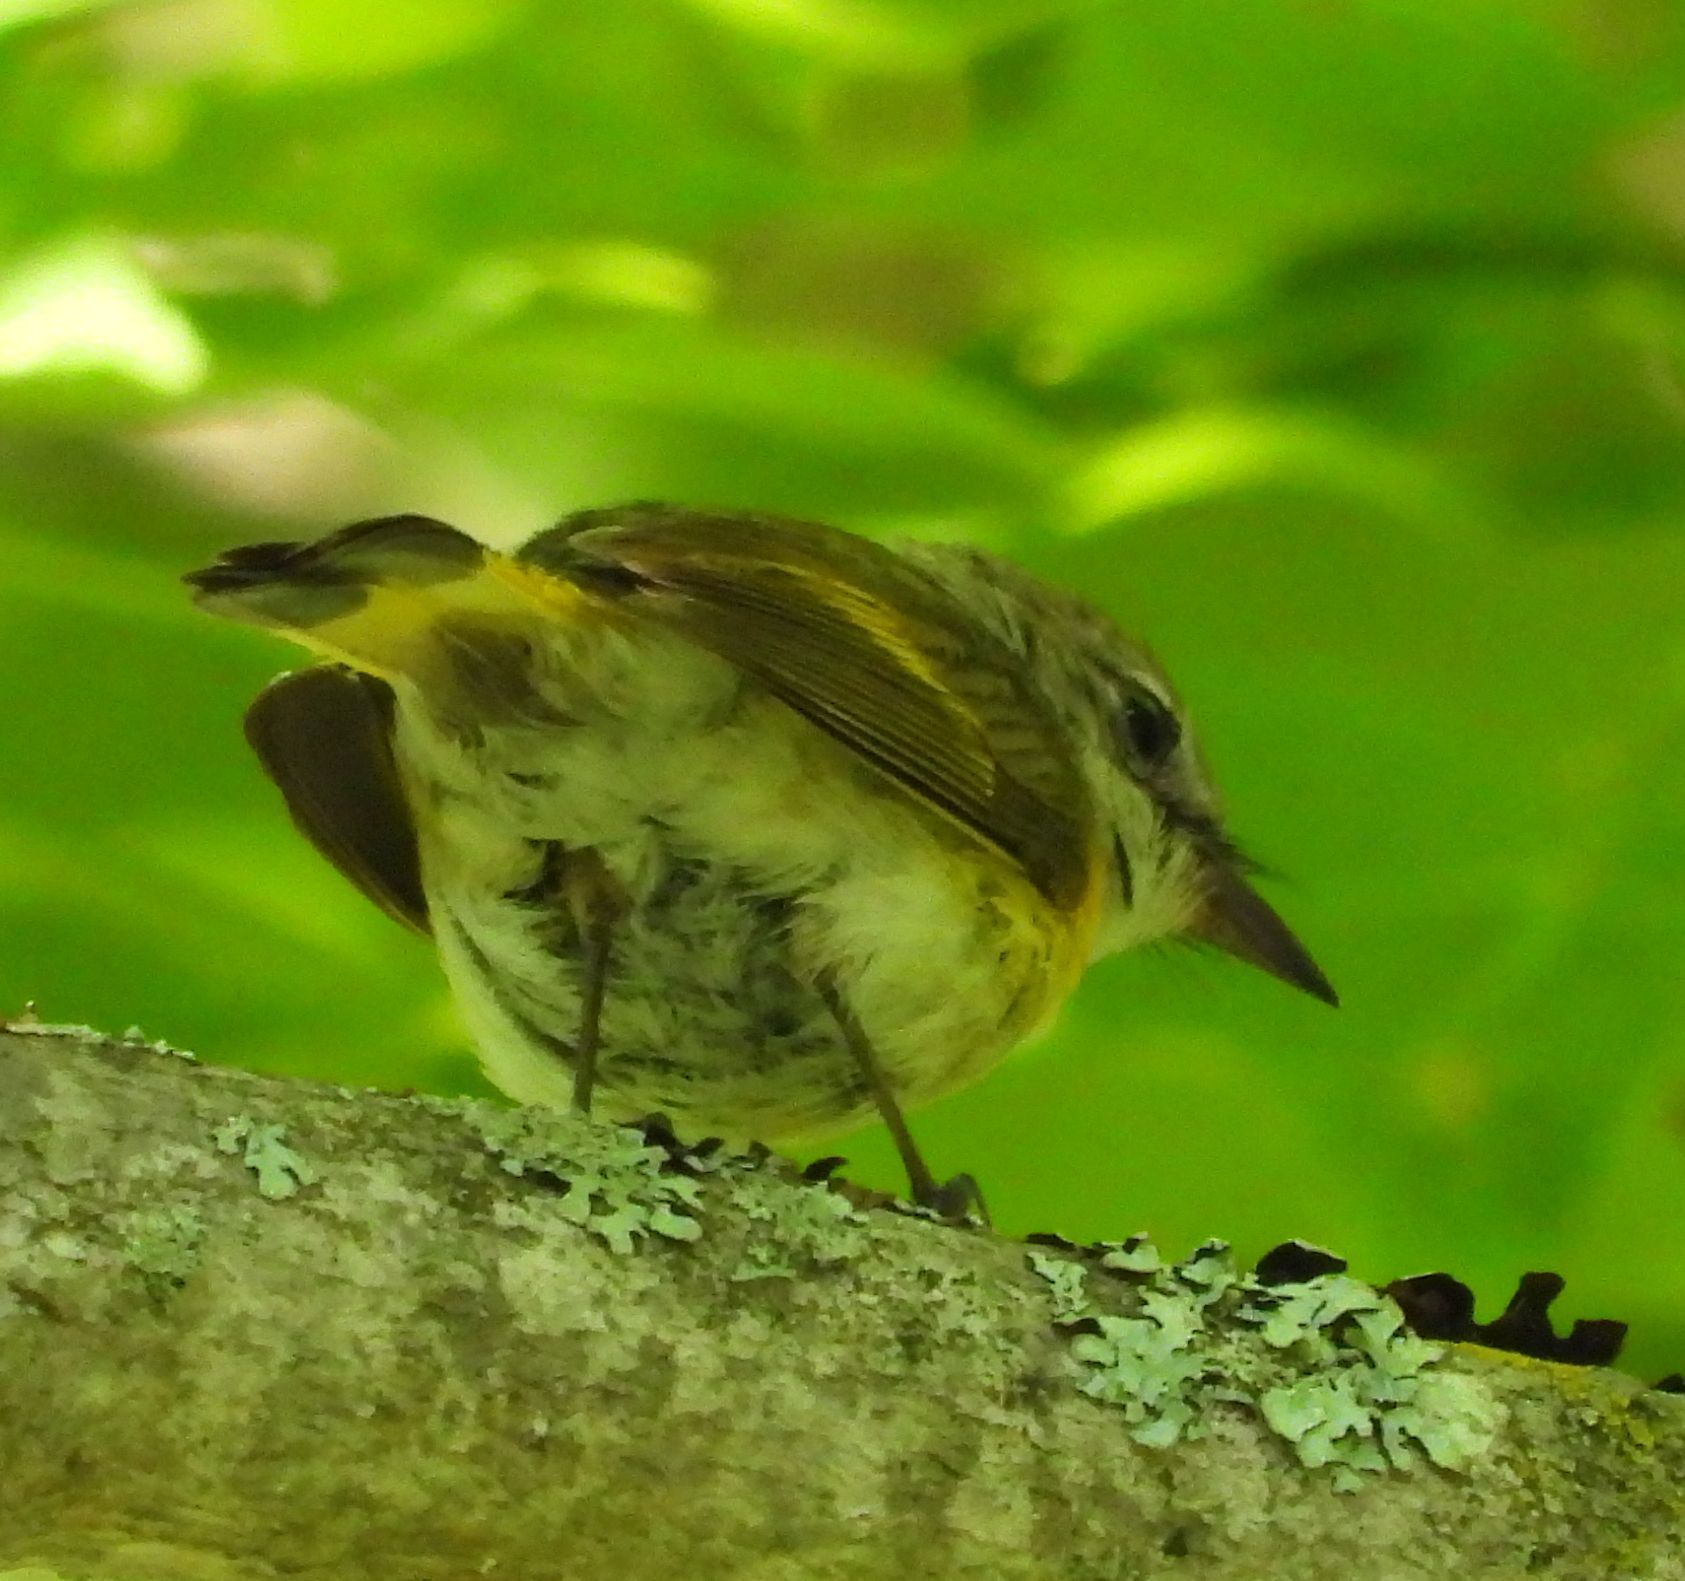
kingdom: Animalia
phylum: Chordata
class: Aves
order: Passeriformes
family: Parulidae
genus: Setophaga
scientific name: Setophaga ruticilla
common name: American redstart
